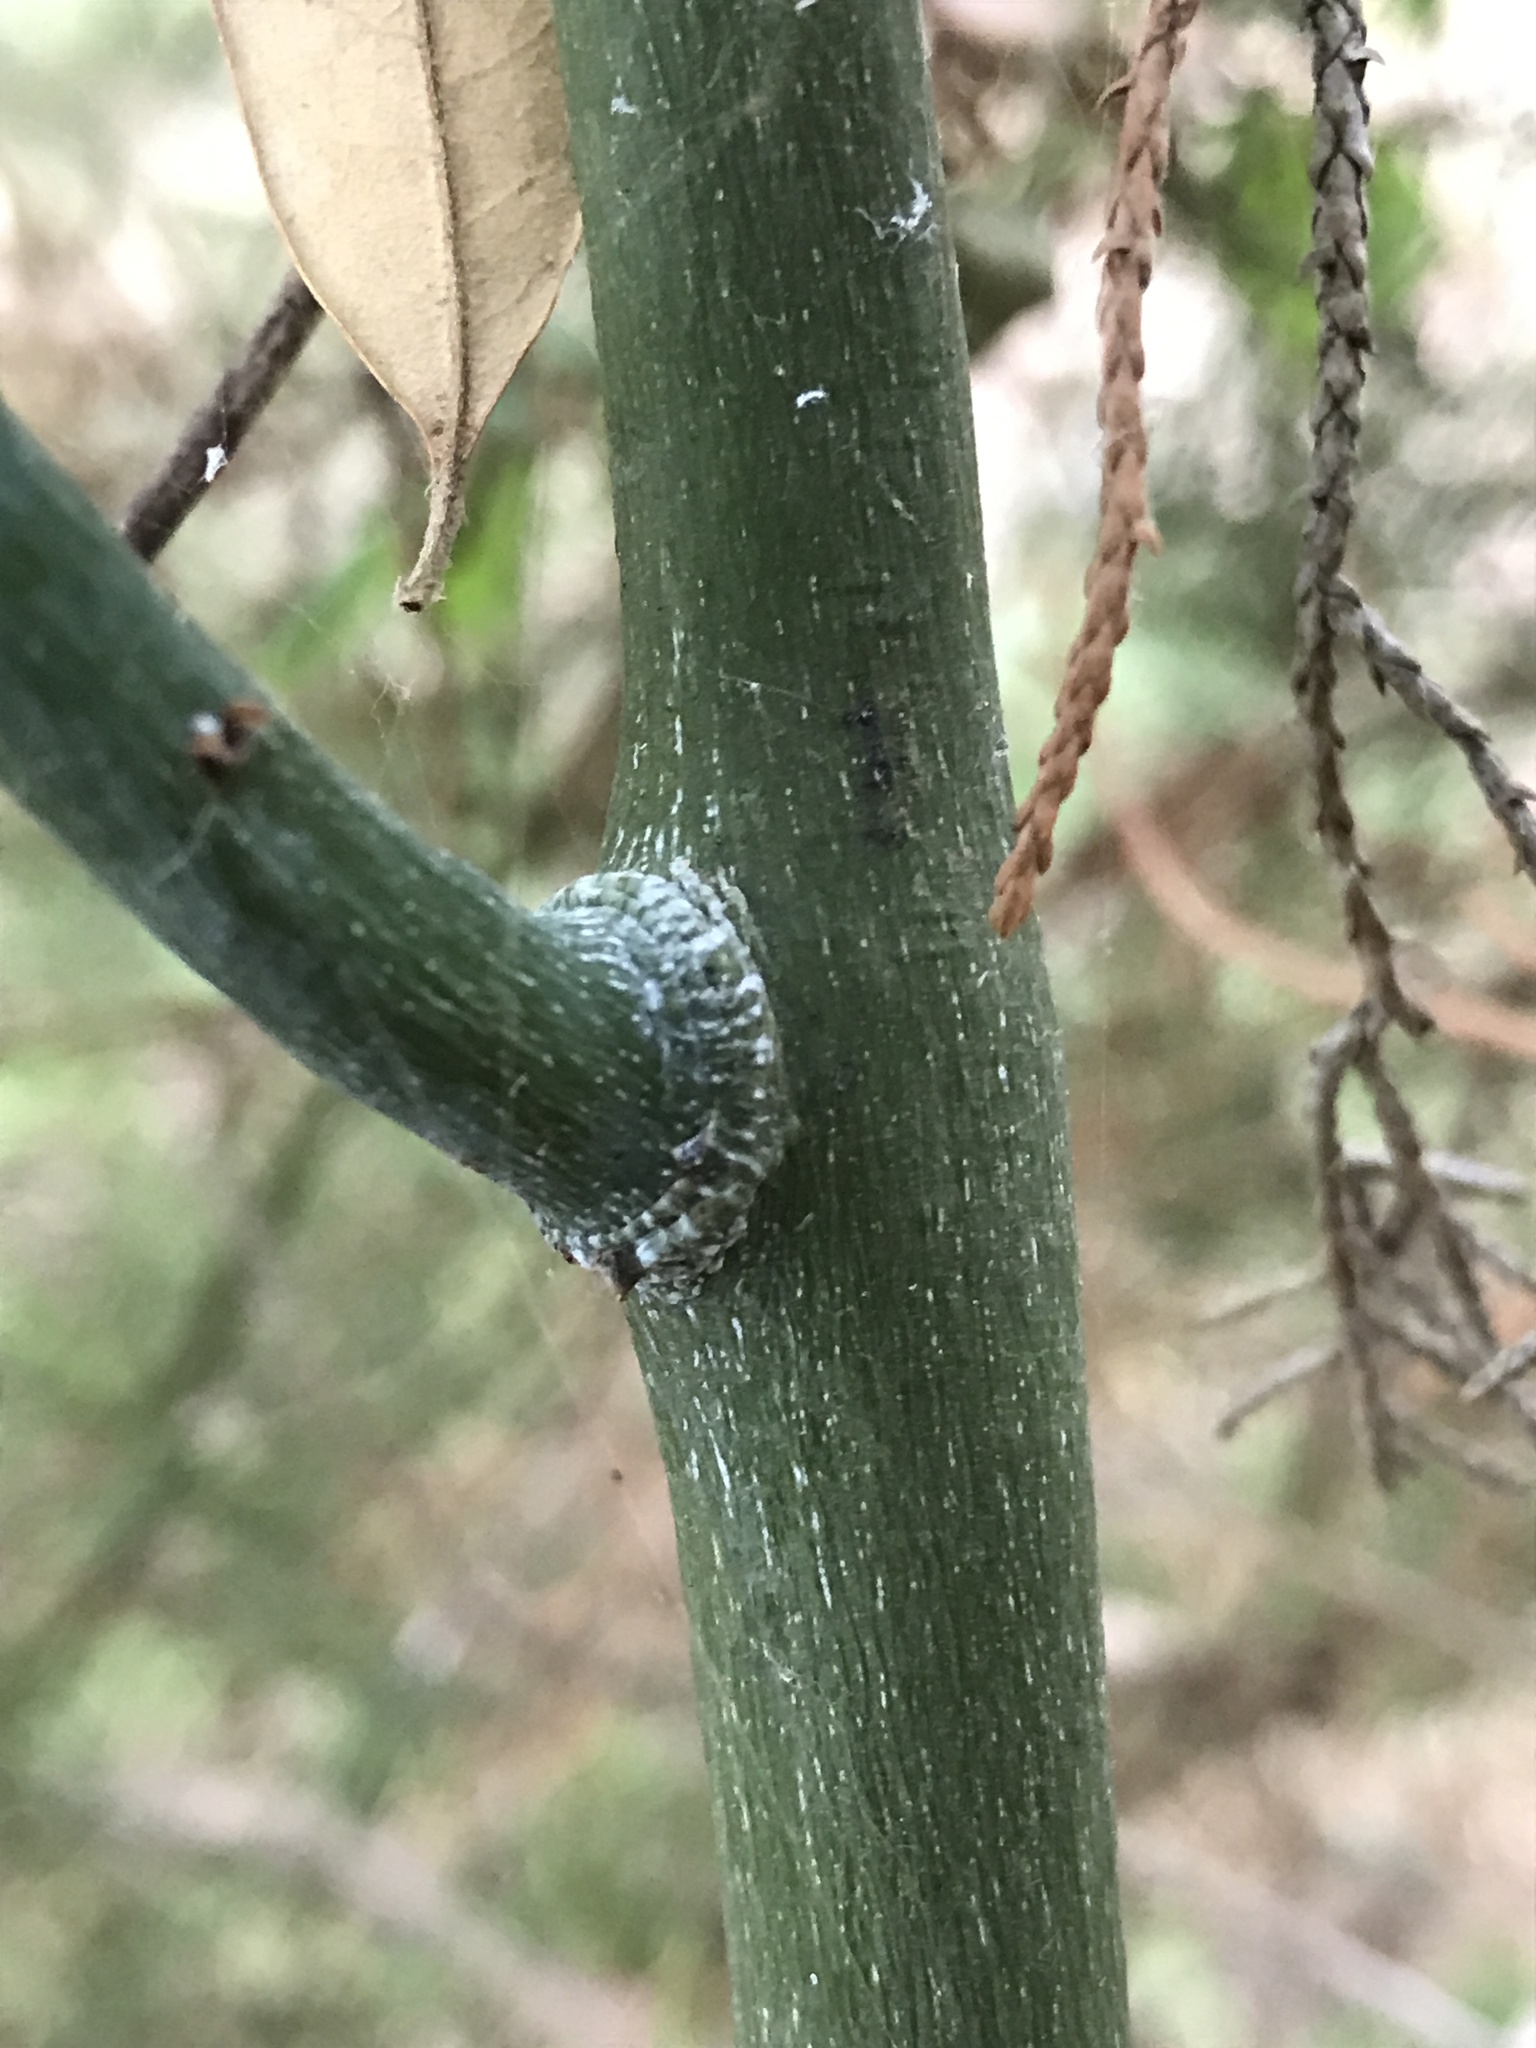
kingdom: Plantae
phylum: Tracheophyta
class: Magnoliopsida
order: Rosales
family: Rhamnaceae
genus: Berchemia
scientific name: Berchemia scandens
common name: Supplejack
